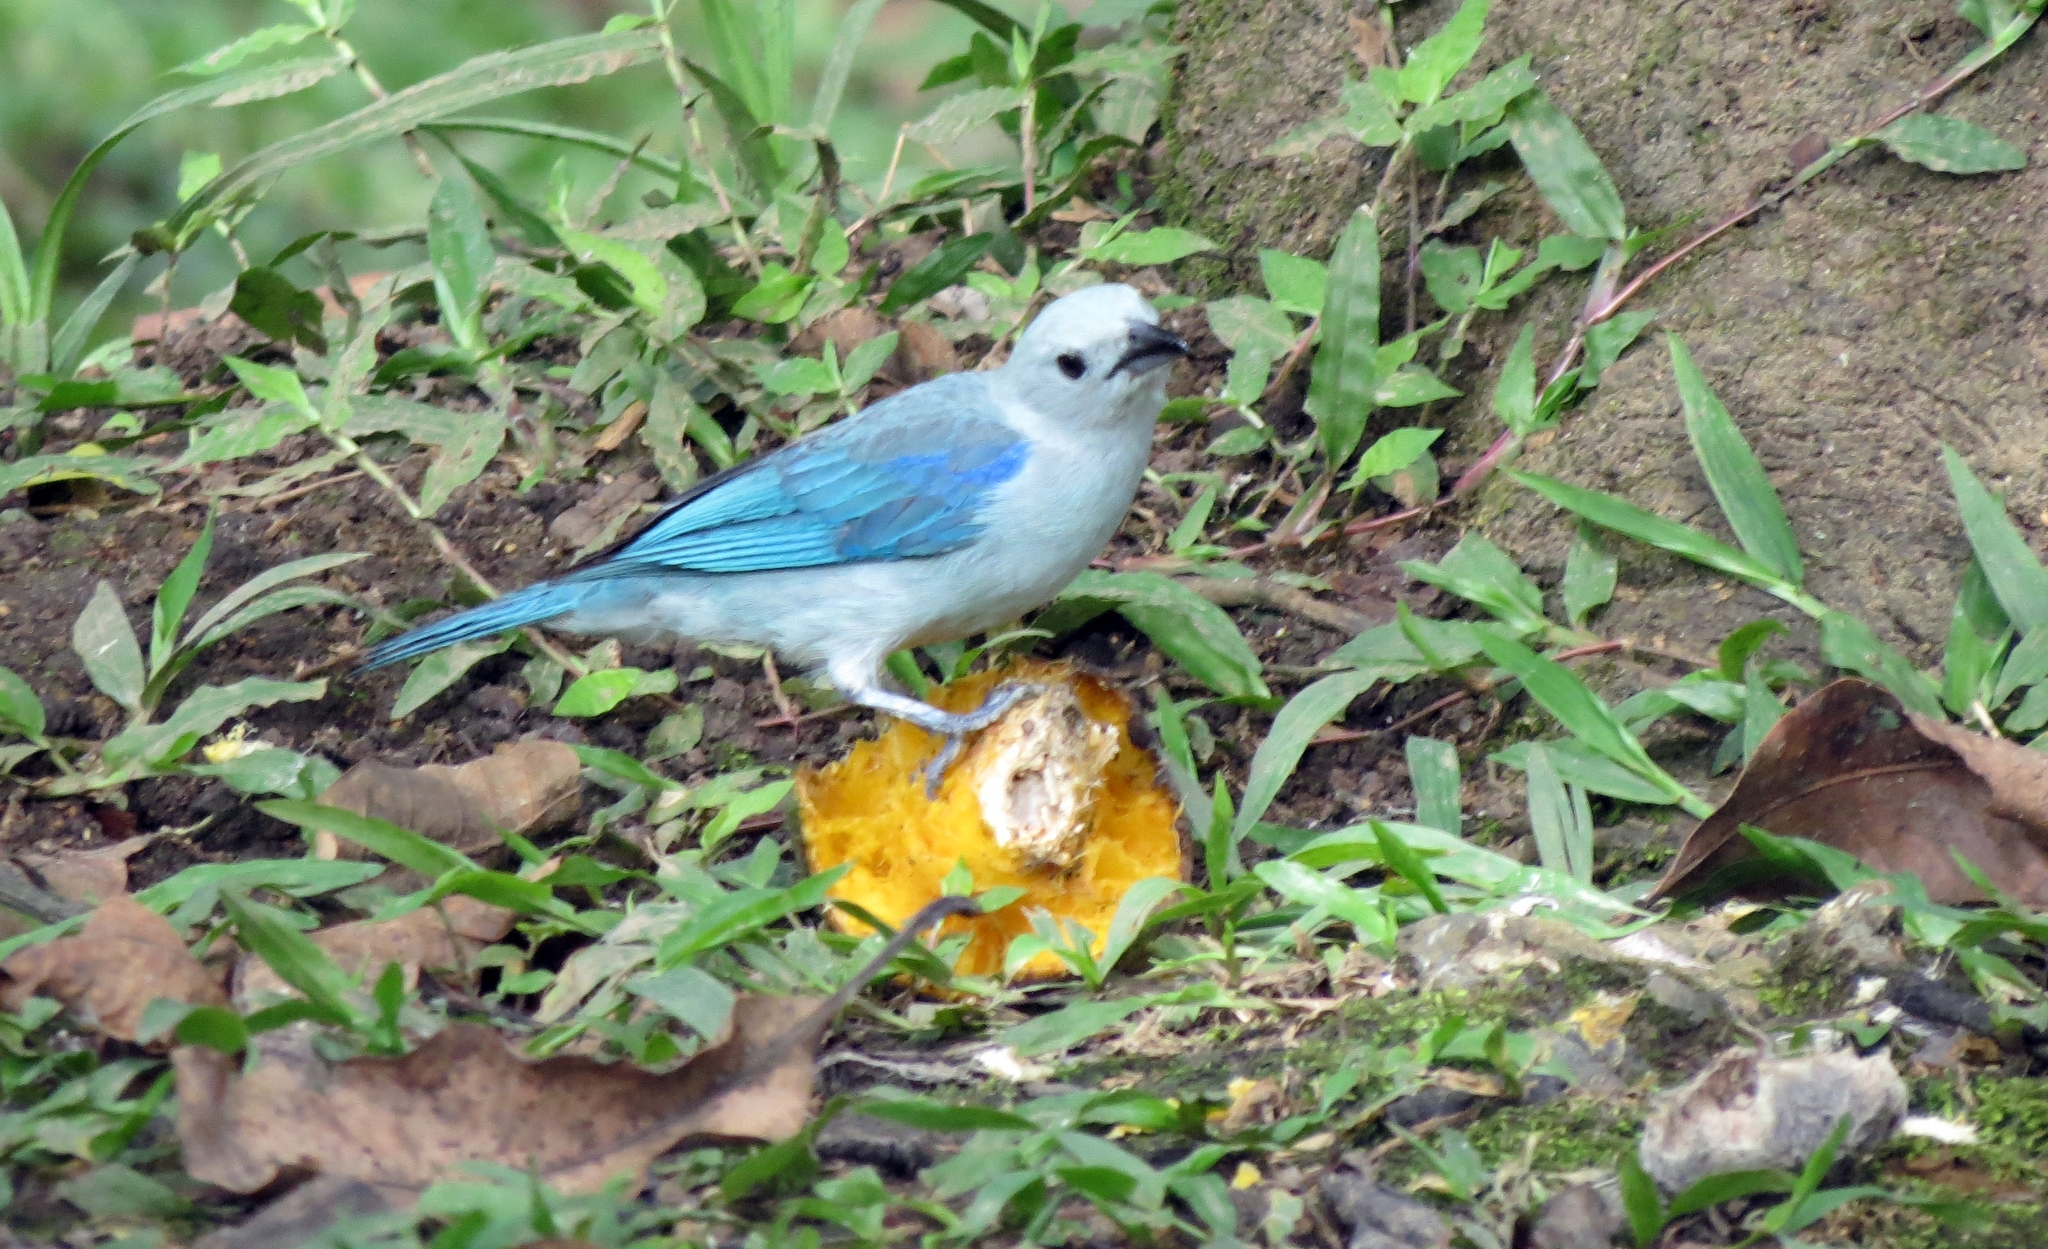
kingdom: Animalia
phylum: Chordata
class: Aves
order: Passeriformes
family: Thraupidae
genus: Thraupis
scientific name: Thraupis episcopus
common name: Blue-grey tanager
